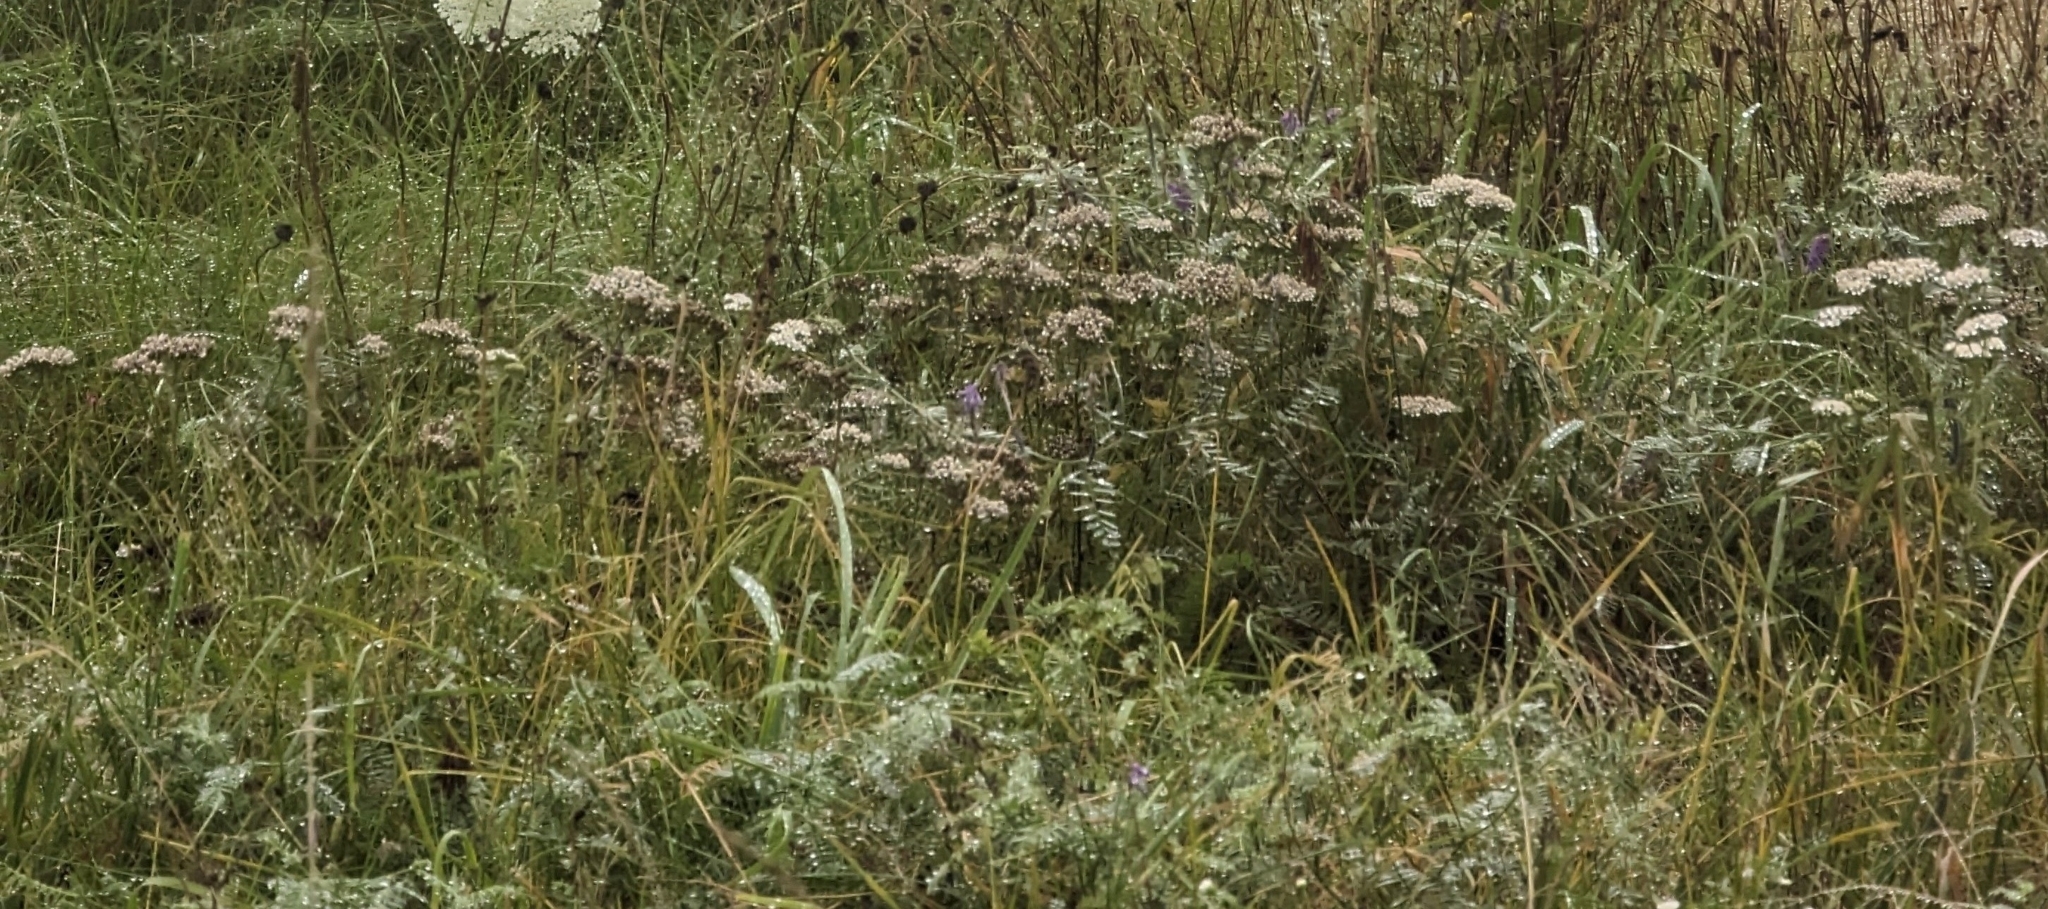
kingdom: Plantae
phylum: Tracheophyta
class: Magnoliopsida
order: Asterales
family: Asteraceae
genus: Achillea
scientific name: Achillea millefolium
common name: Yarrow
